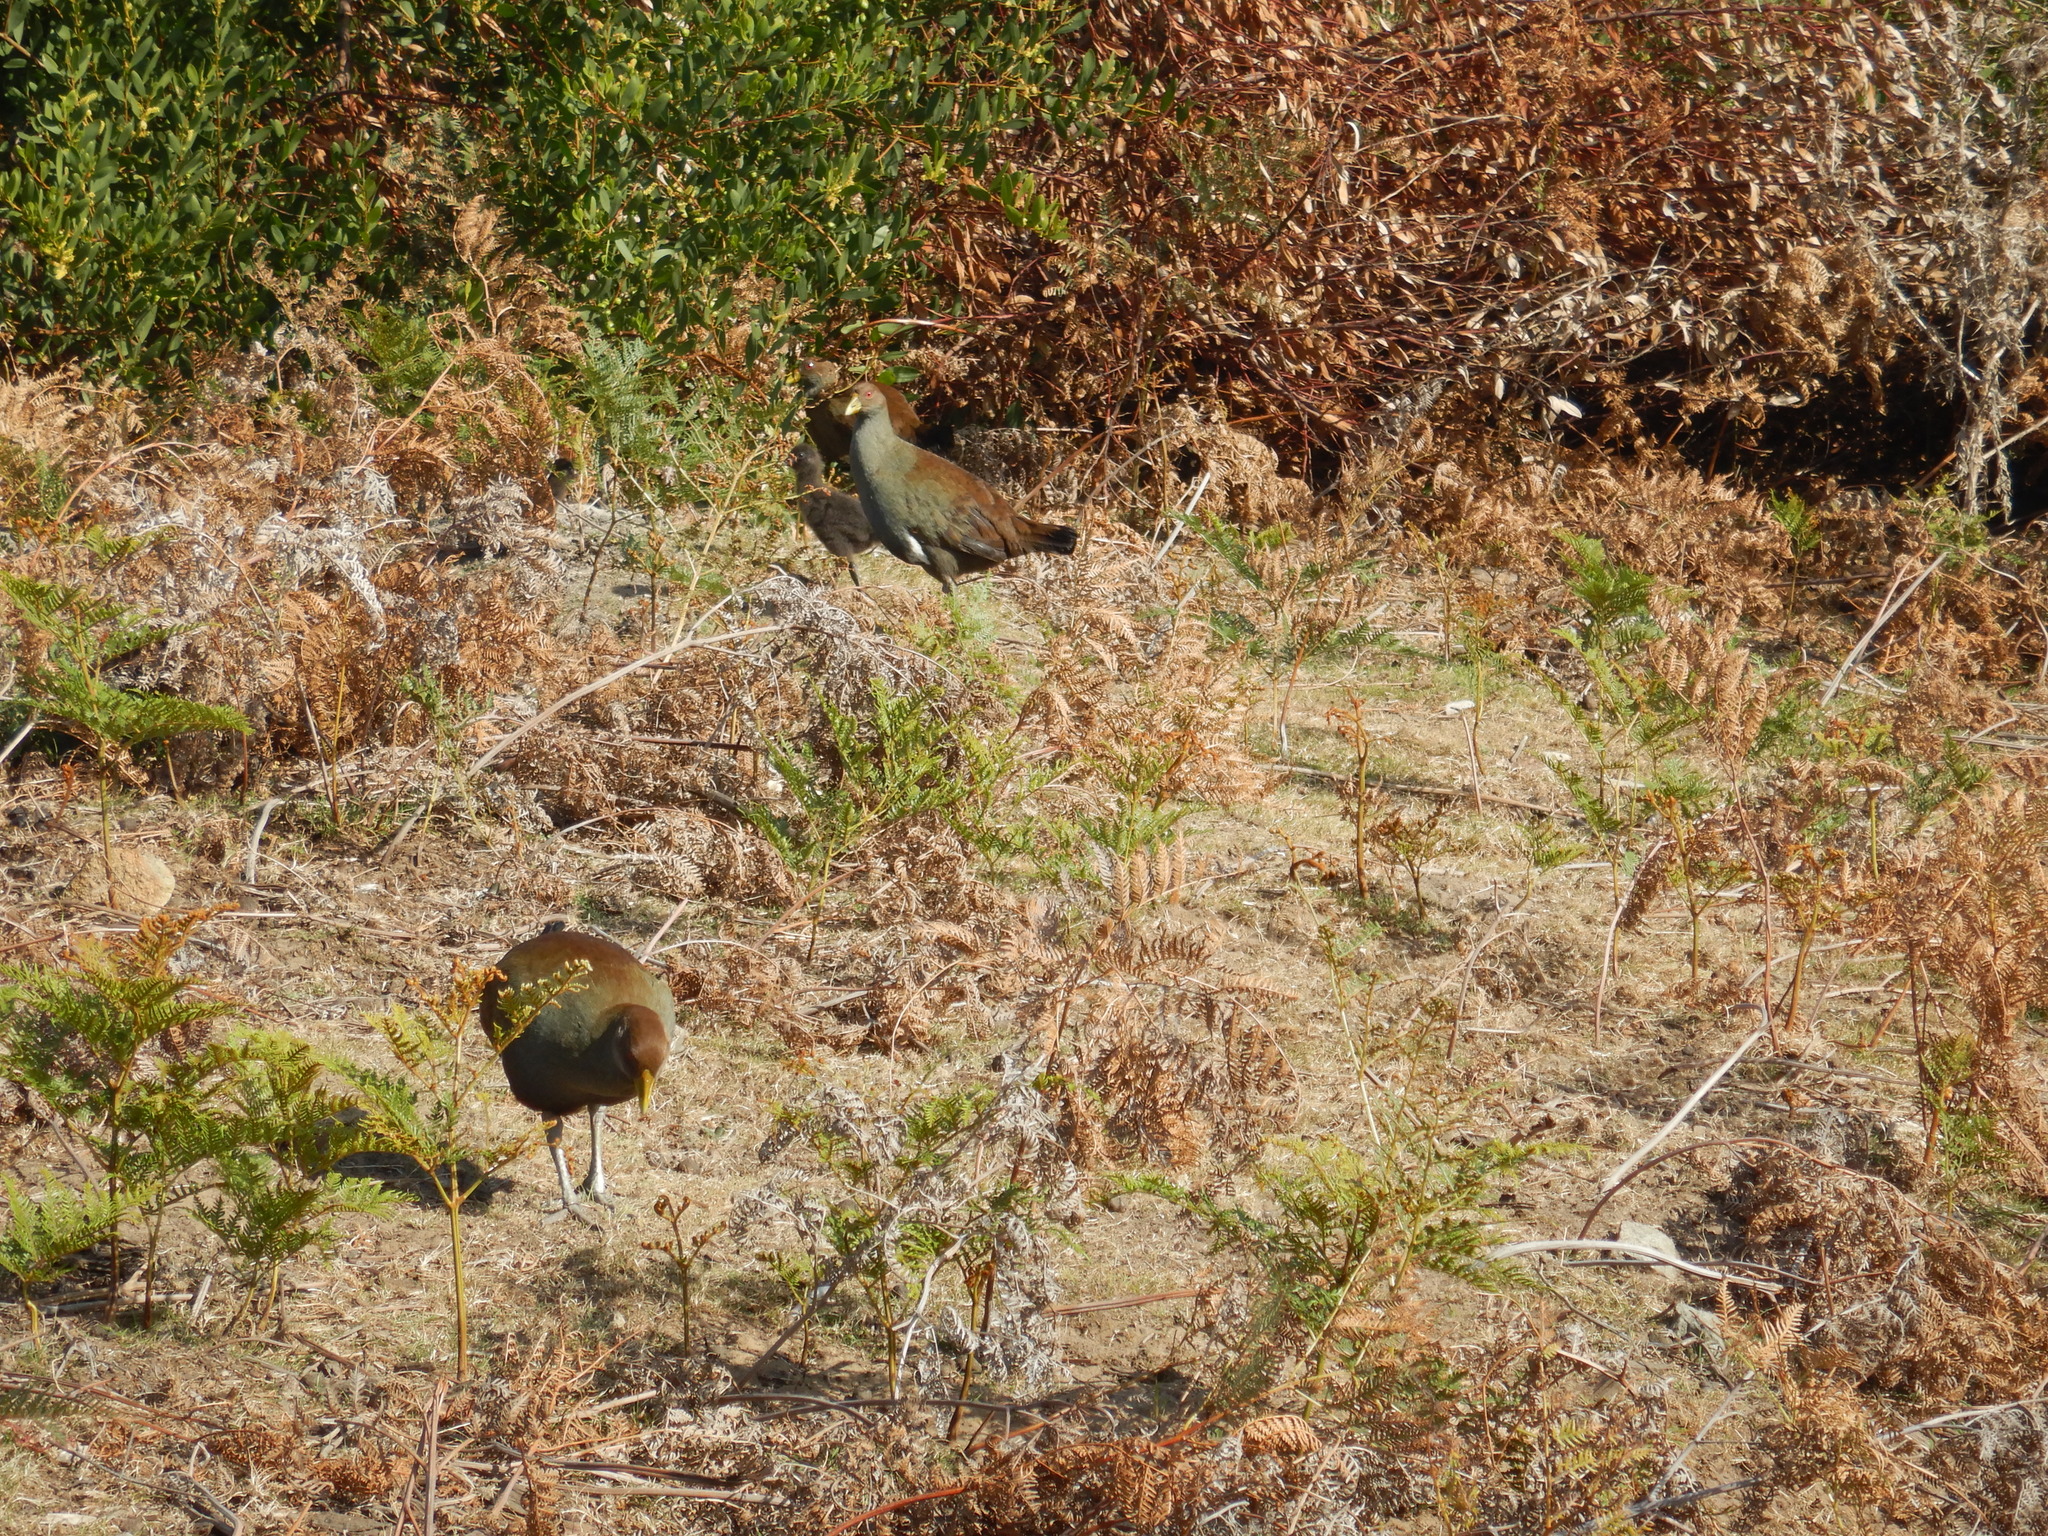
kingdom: Animalia
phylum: Chordata
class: Aves
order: Gruiformes
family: Rallidae
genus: Gallinula
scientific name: Gallinula mortierii
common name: Tasmanian nativehen
